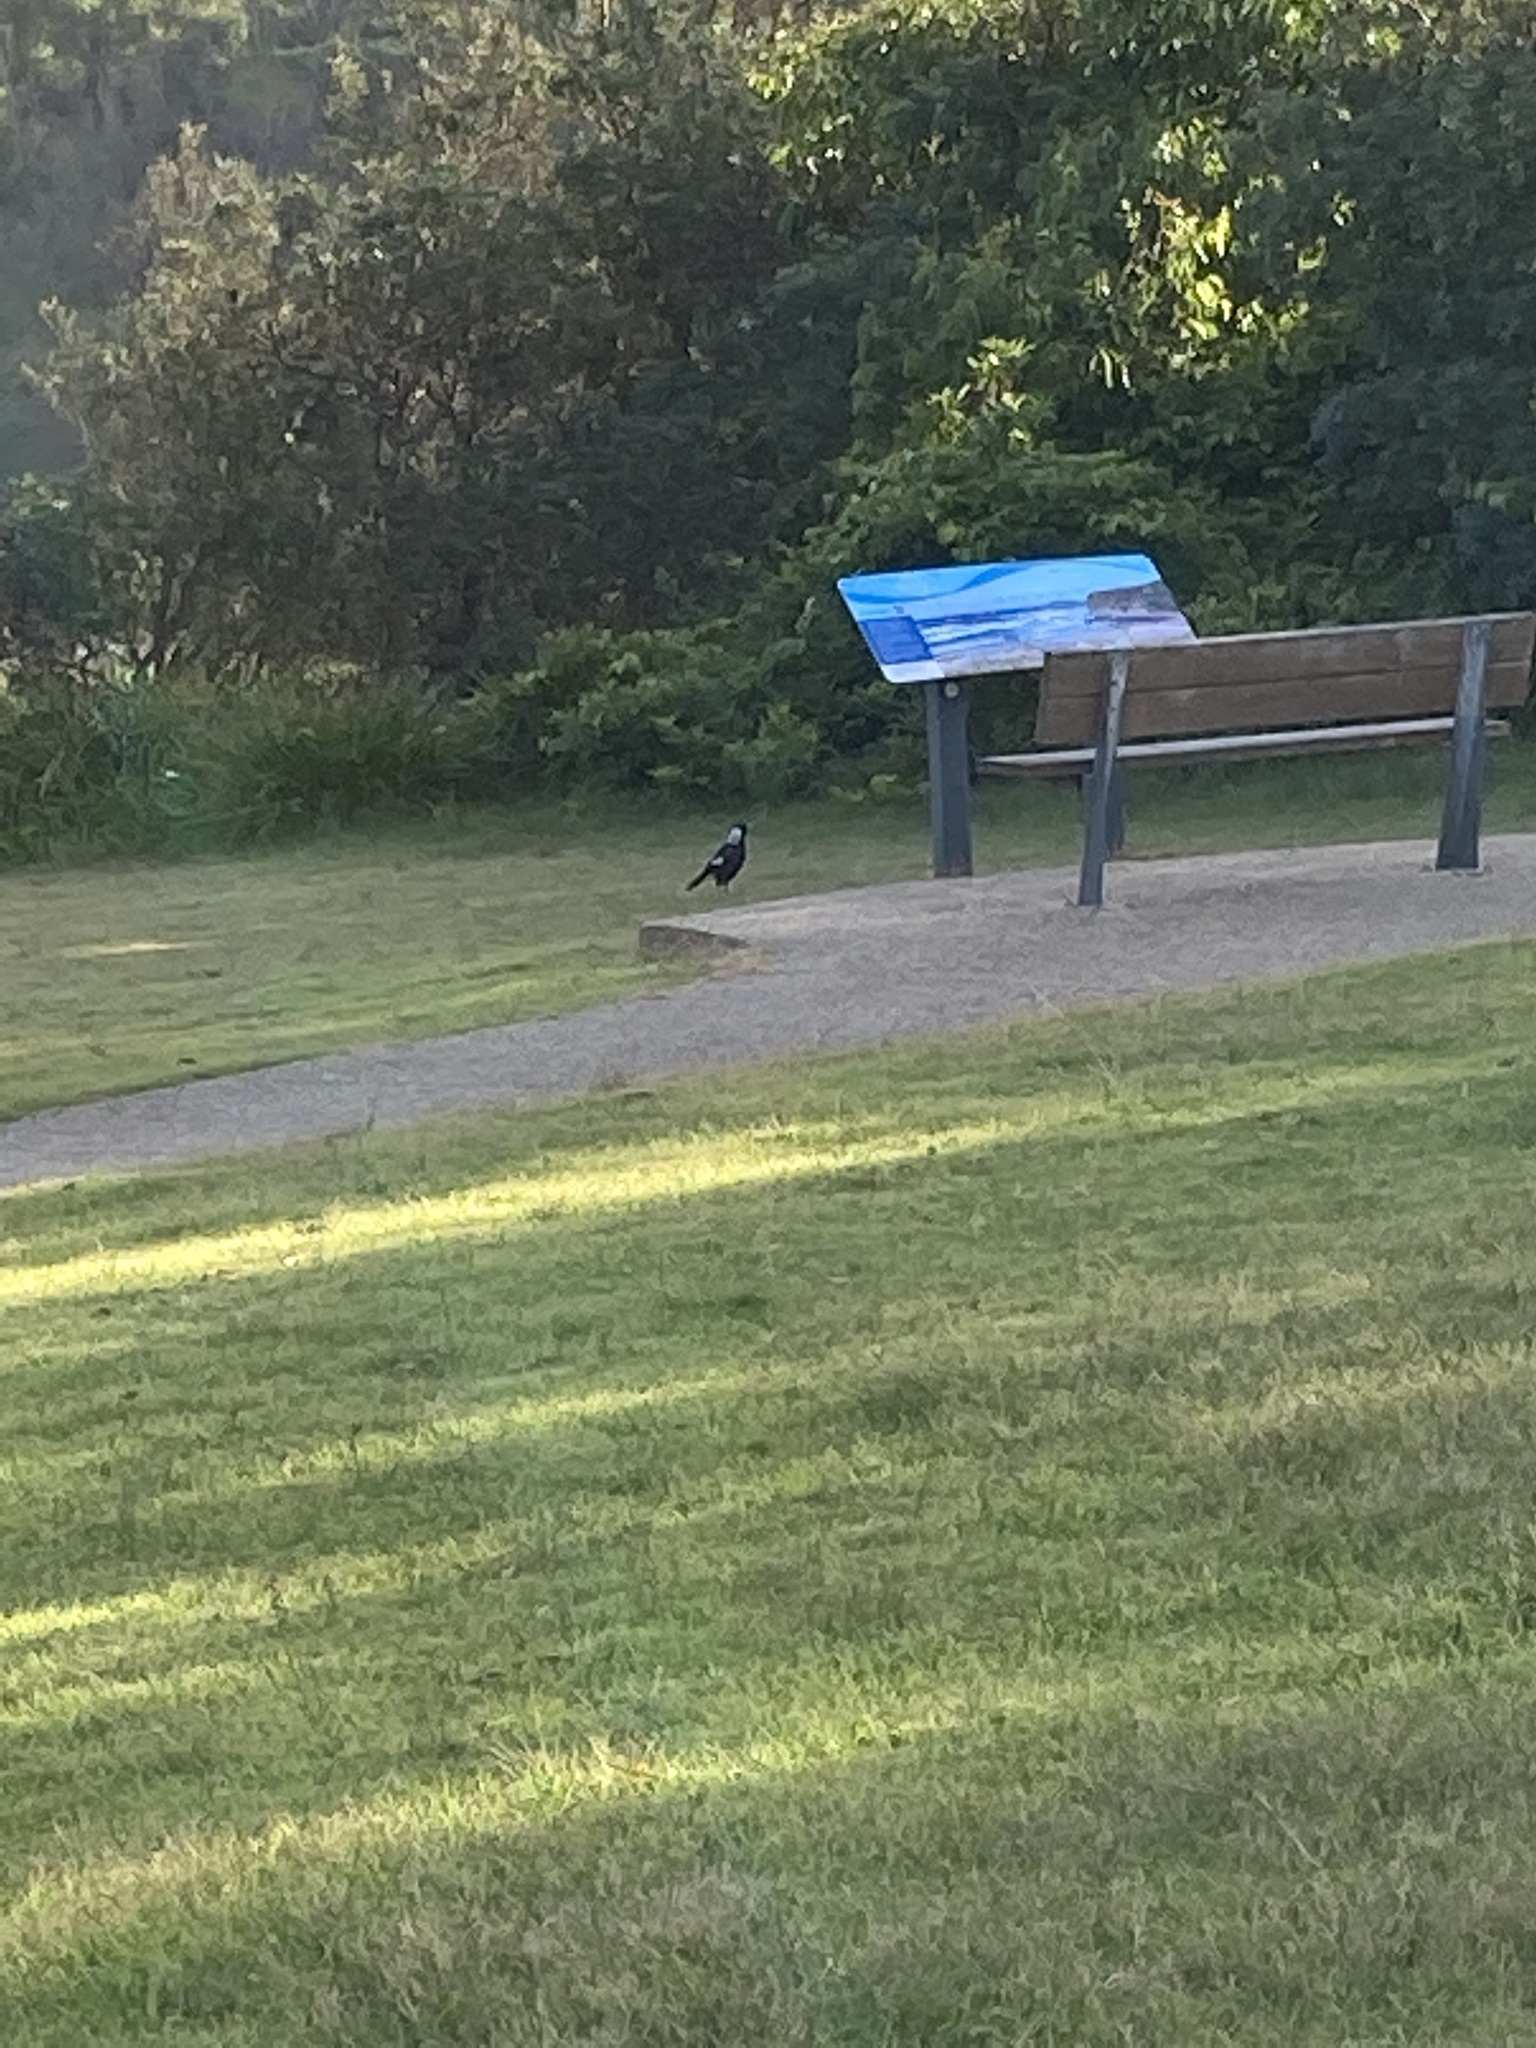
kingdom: Animalia
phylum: Chordata
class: Aves
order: Passeriformes
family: Cracticidae
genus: Gymnorhina
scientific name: Gymnorhina tibicen
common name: Australian magpie
